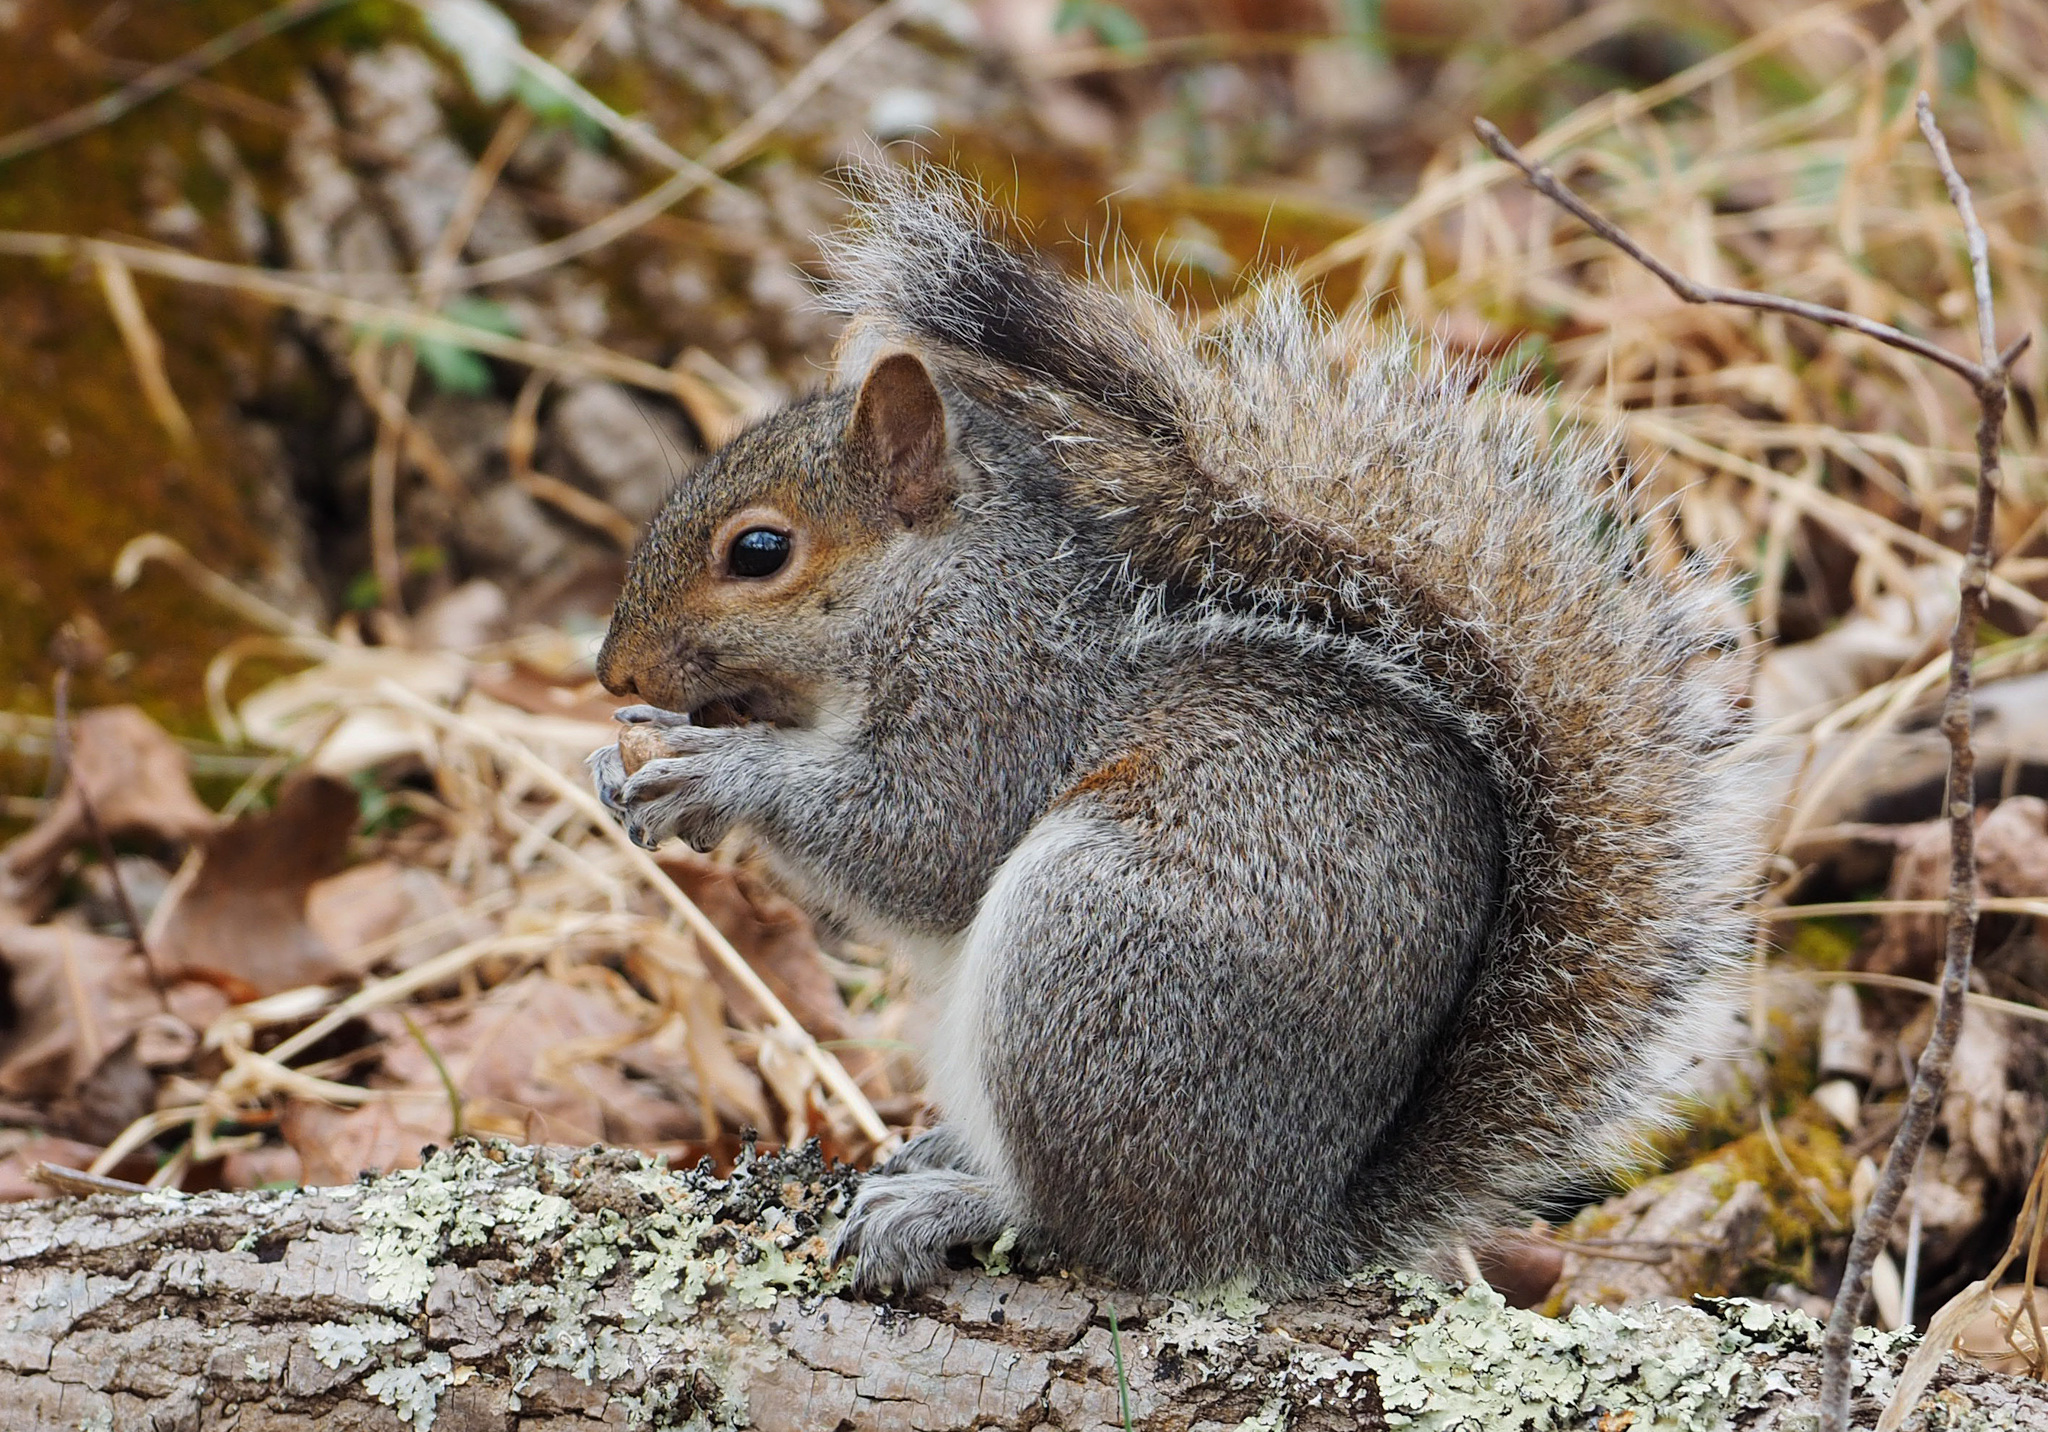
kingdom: Animalia
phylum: Chordata
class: Mammalia
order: Rodentia
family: Sciuridae
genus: Sciurus
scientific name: Sciurus carolinensis
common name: Eastern gray squirrel
